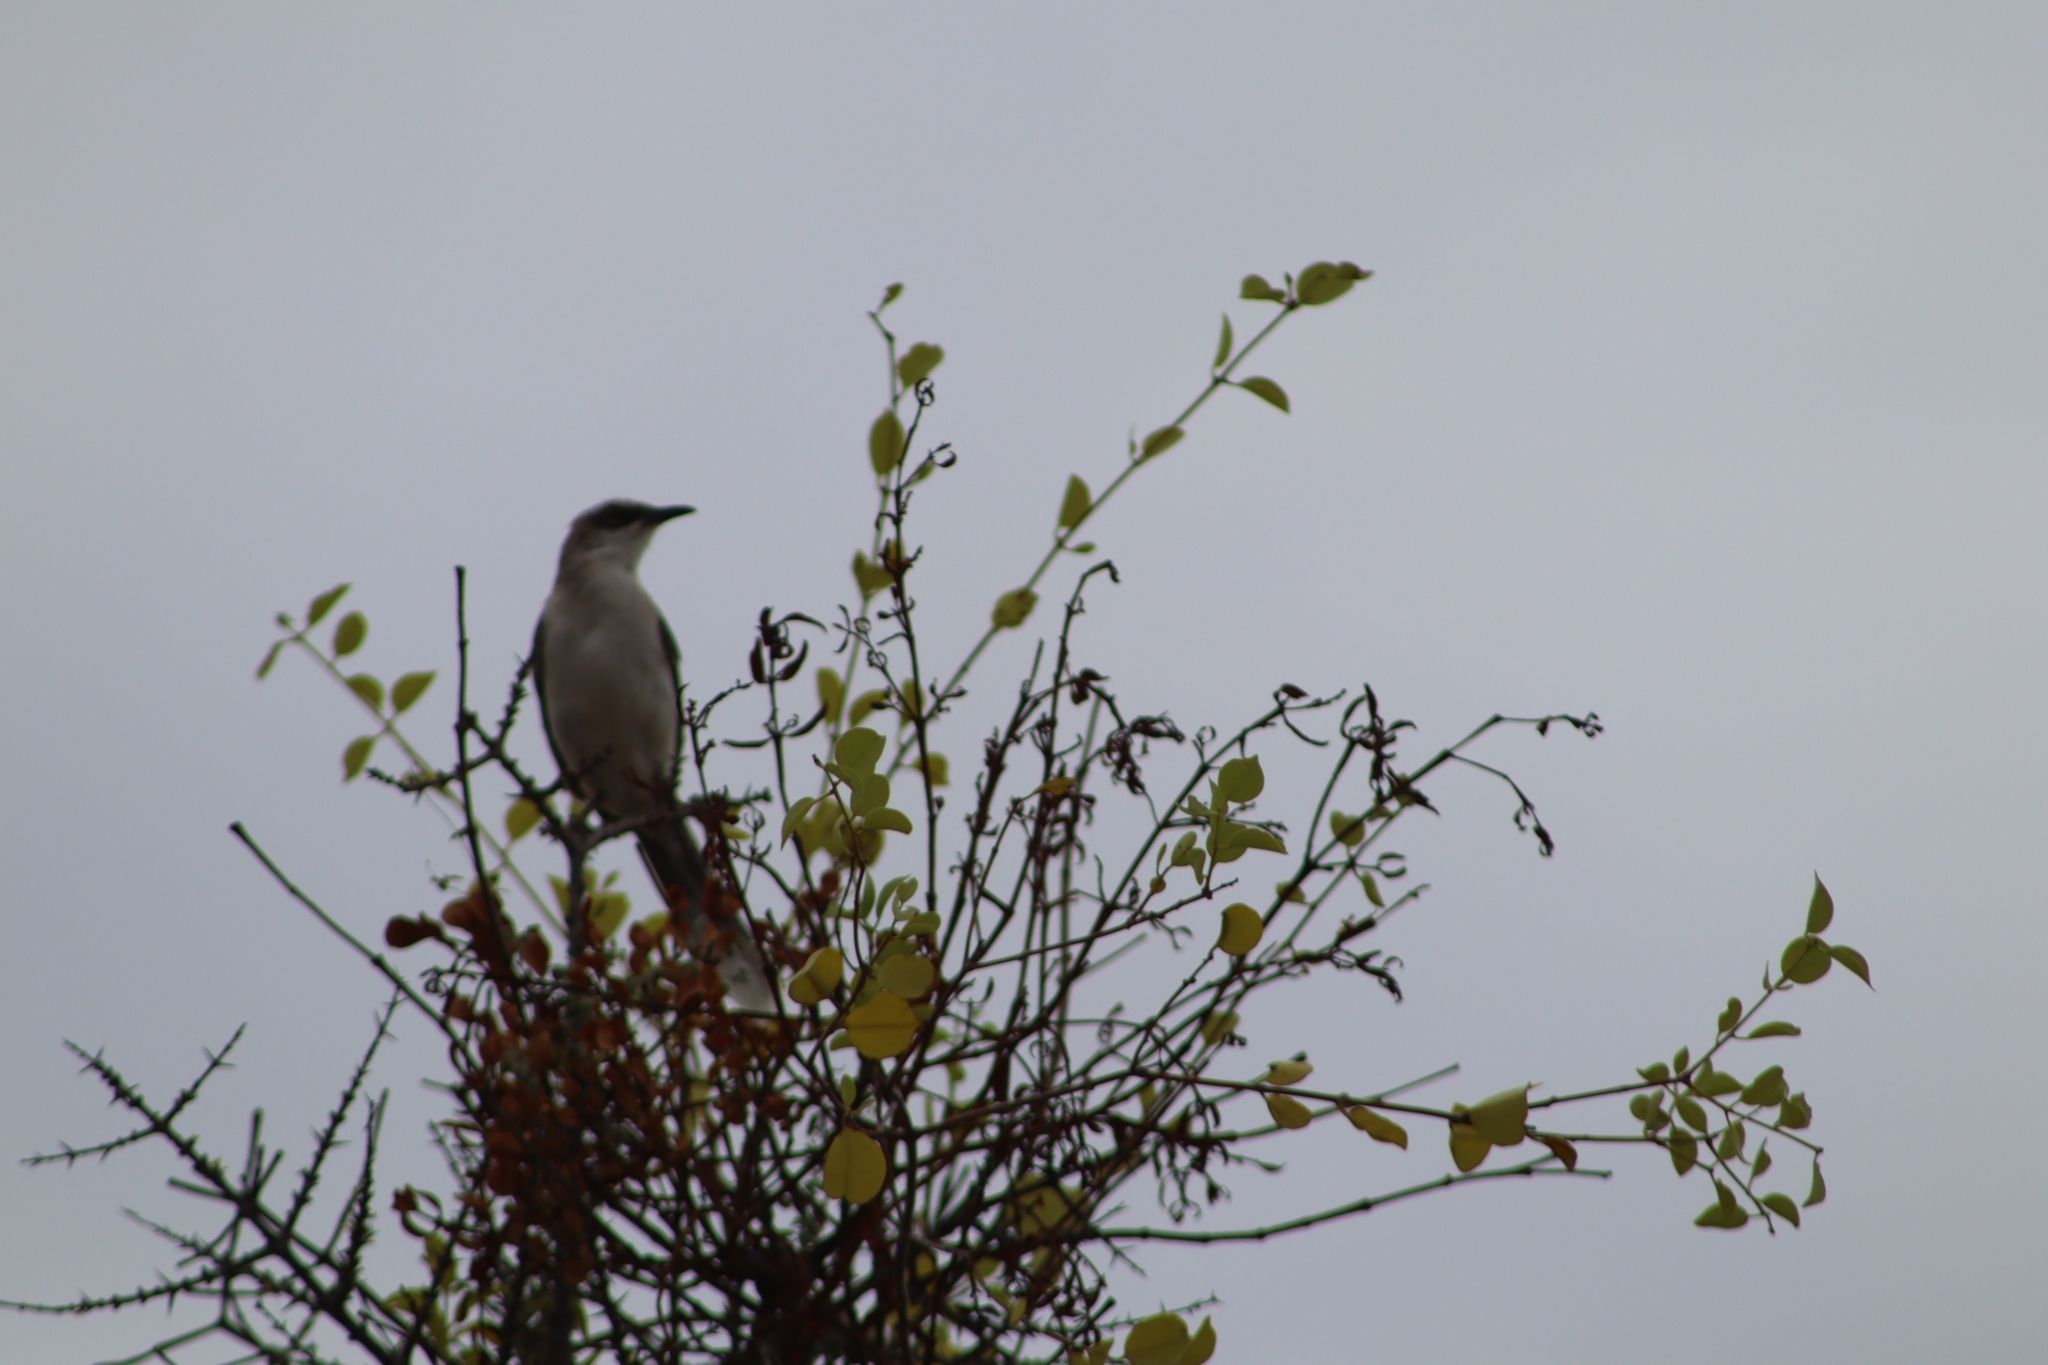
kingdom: Animalia
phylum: Chordata
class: Aves
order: Passeriformes
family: Mimidae
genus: Mimus
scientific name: Mimus gilvus
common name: Tropical mockingbird
